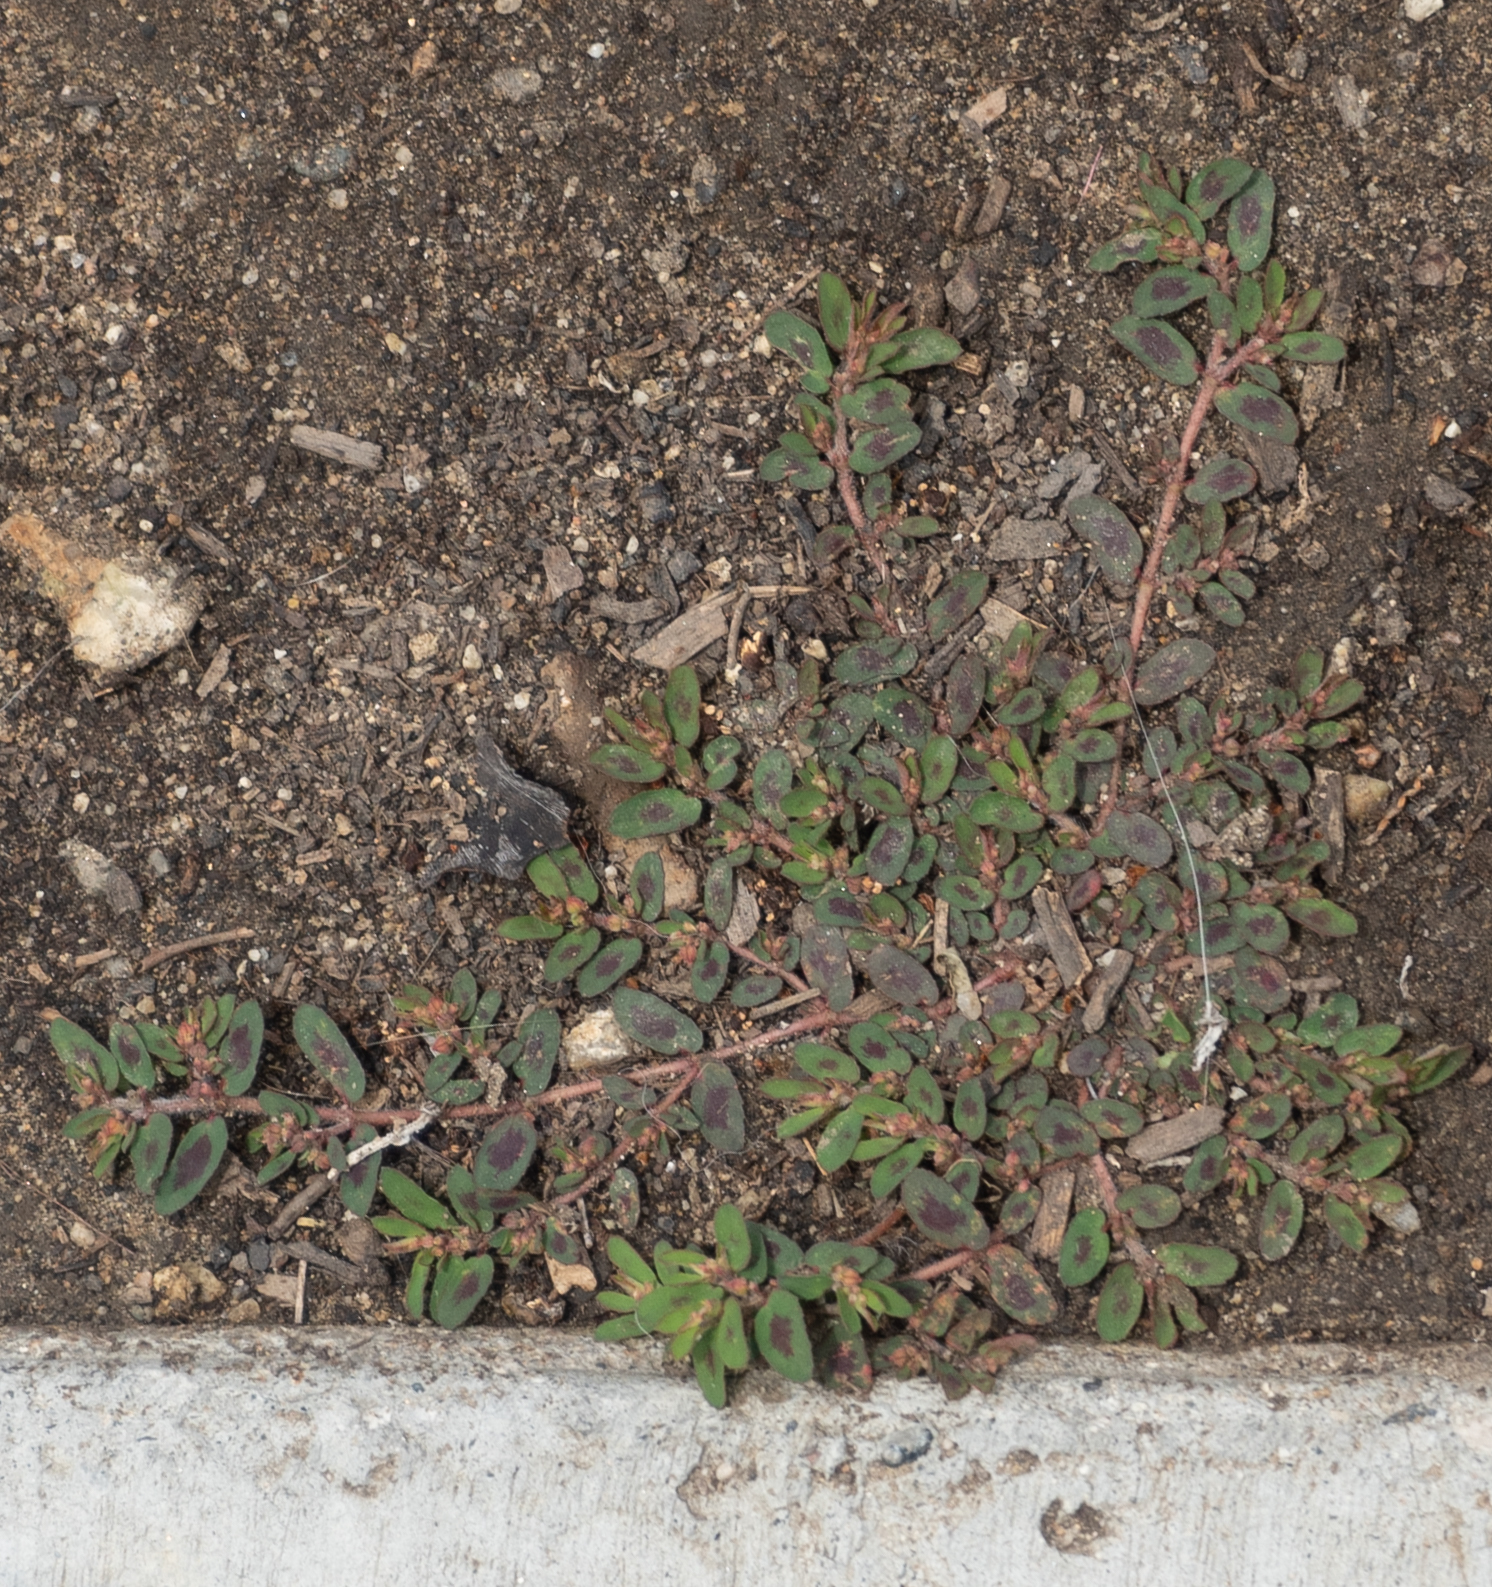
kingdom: Plantae
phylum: Tracheophyta
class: Magnoliopsida
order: Malpighiales
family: Euphorbiaceae
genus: Euphorbia
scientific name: Euphorbia maculata
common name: Spotted spurge
